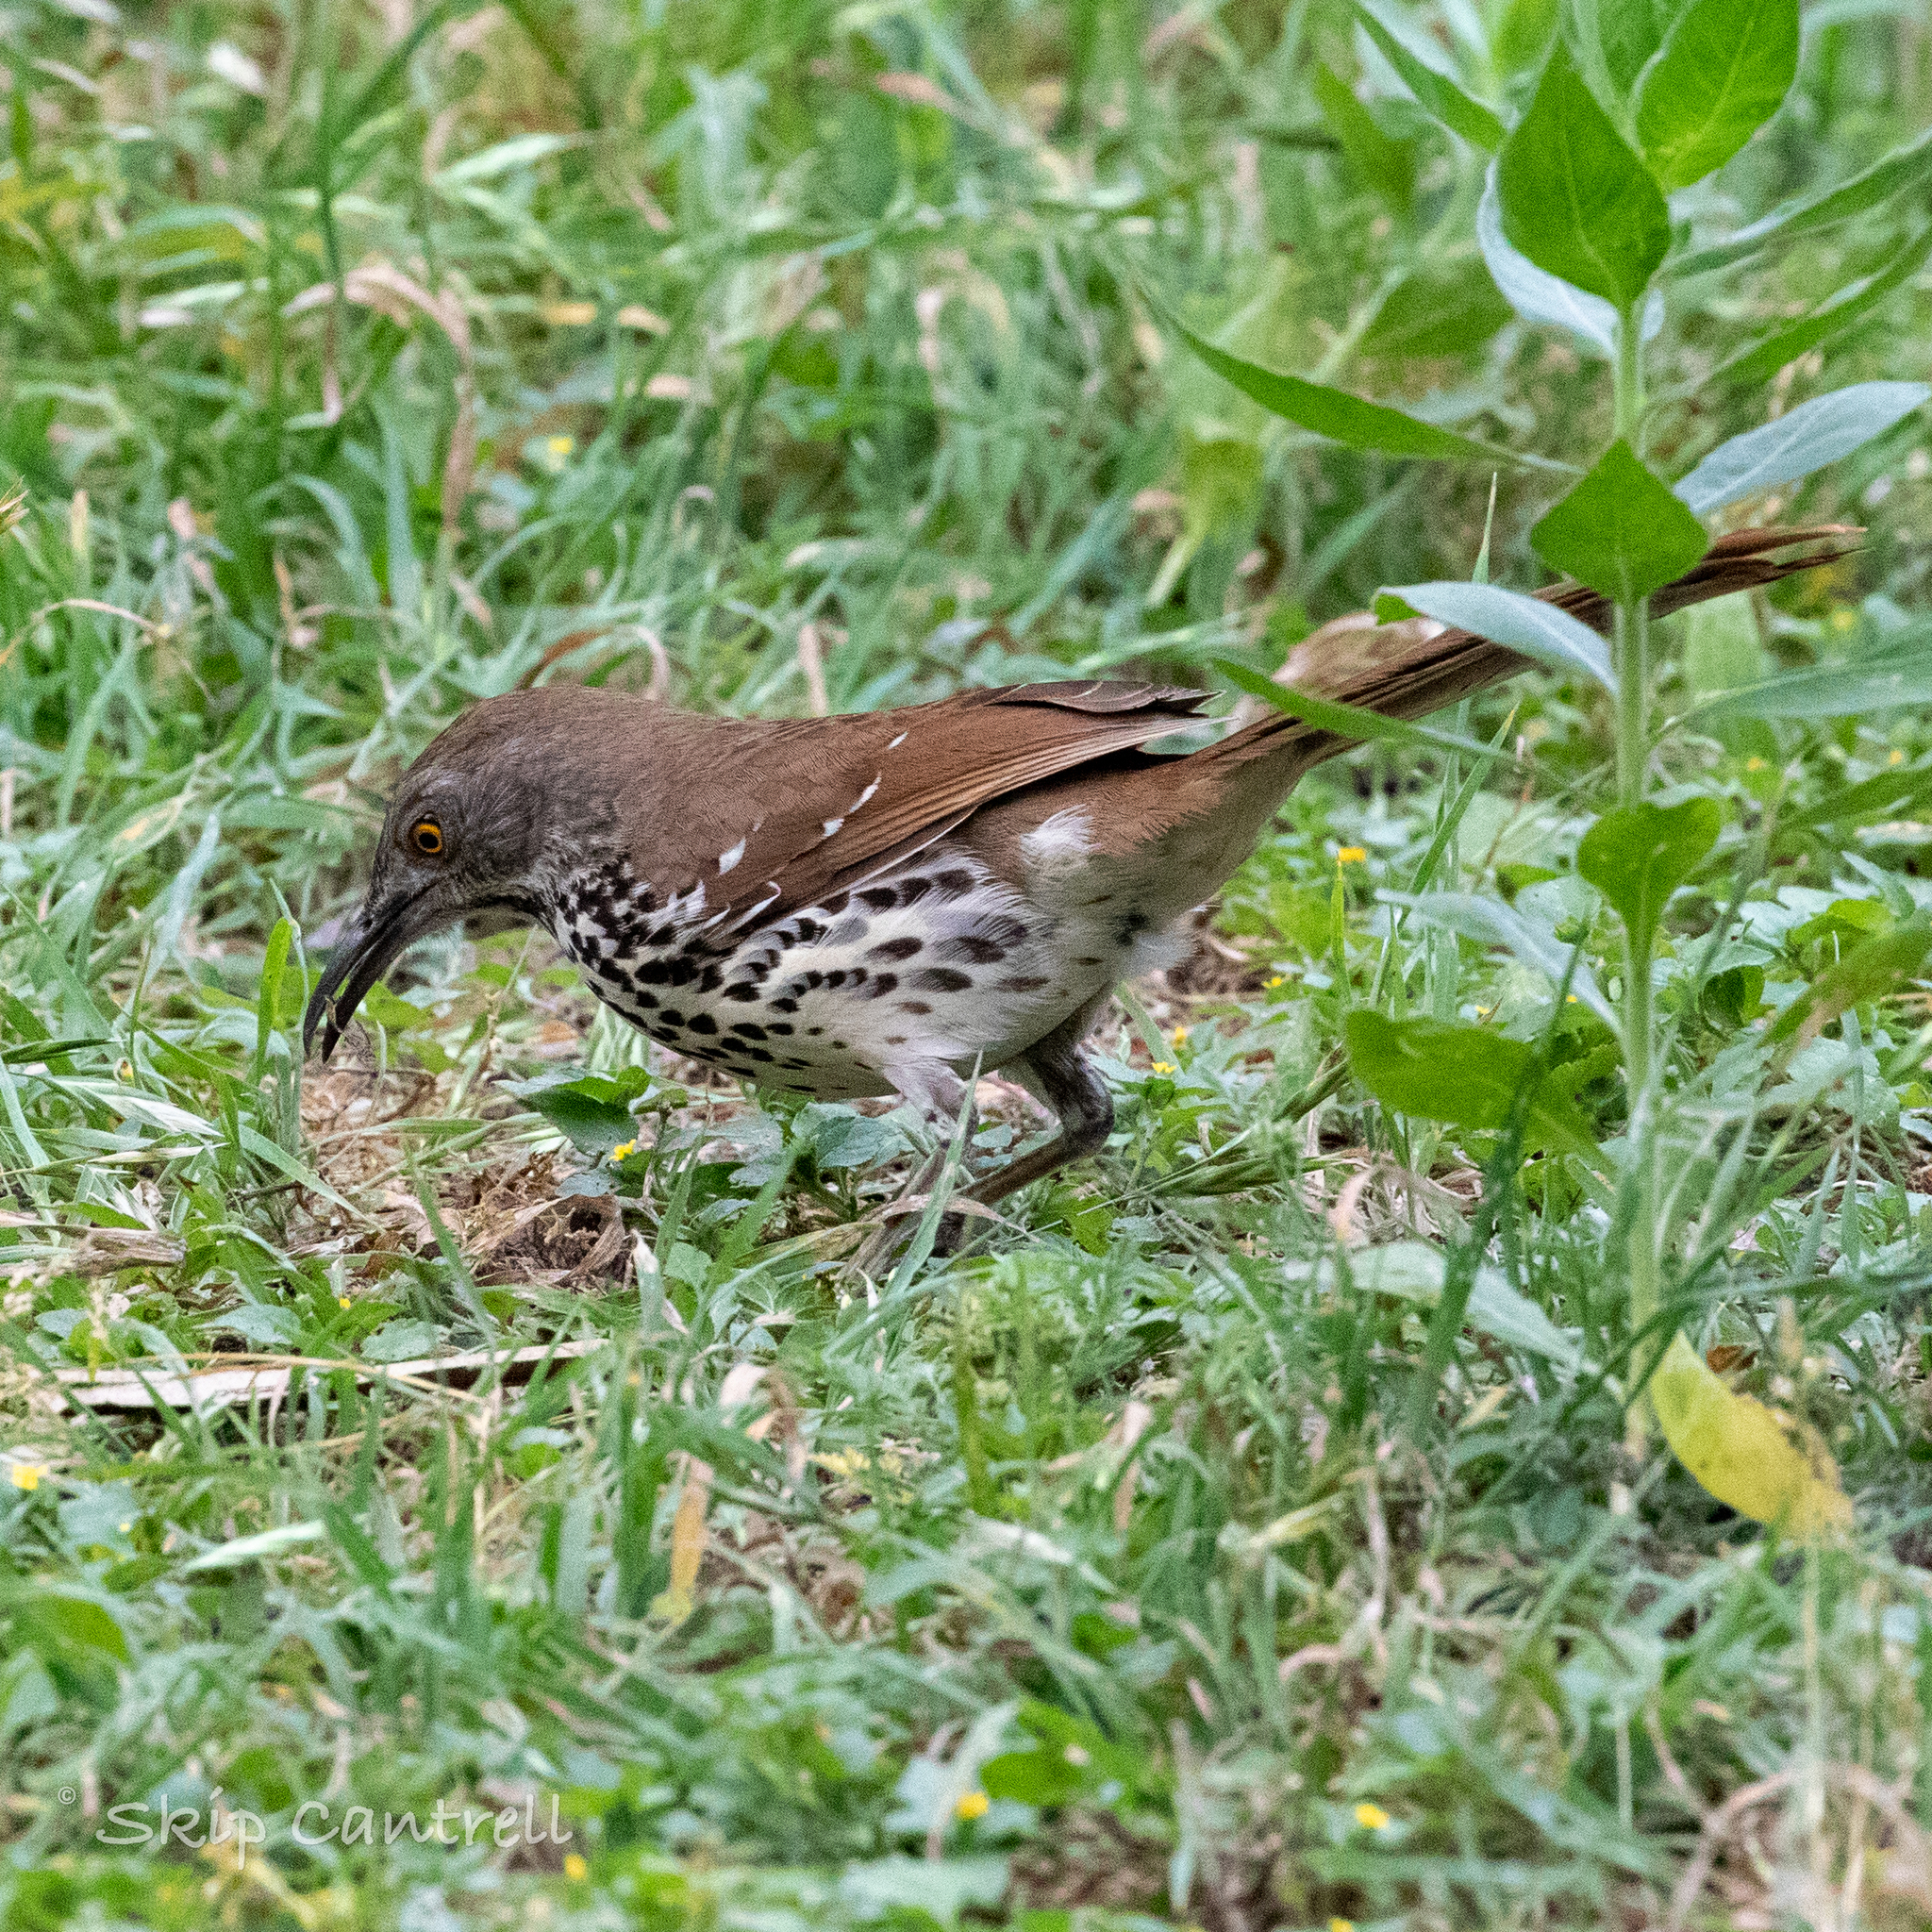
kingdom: Animalia
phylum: Chordata
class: Aves
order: Passeriformes
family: Mimidae
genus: Toxostoma
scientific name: Toxostoma longirostre
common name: Long-billed thrasher
